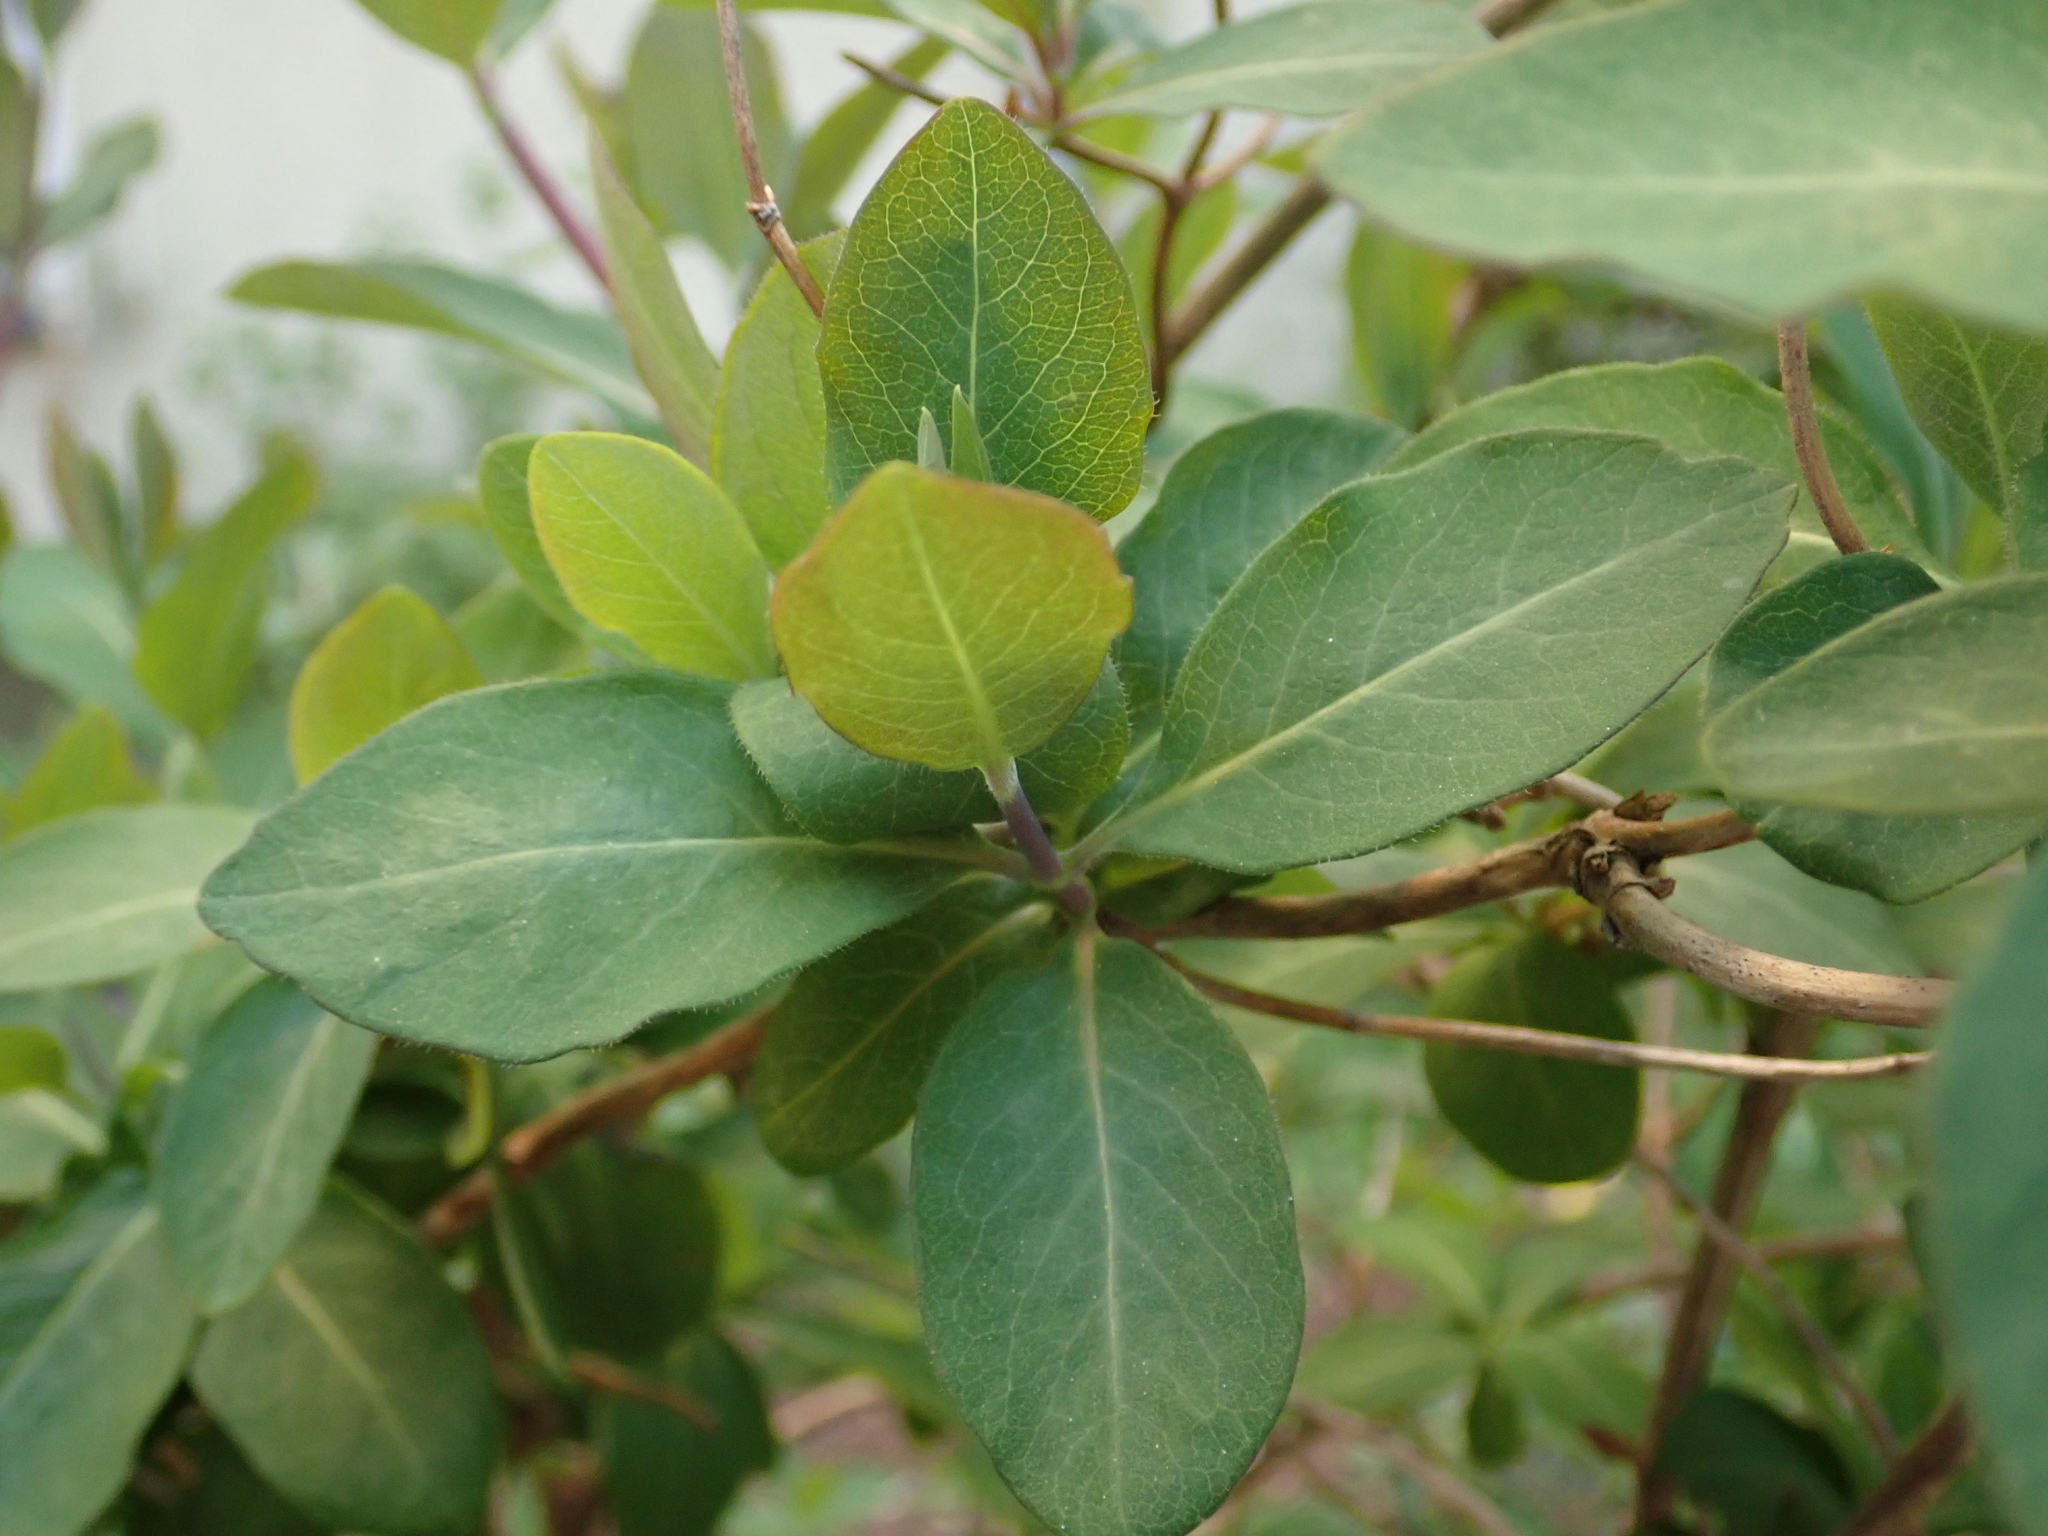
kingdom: Plantae
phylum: Tracheophyta
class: Magnoliopsida
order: Dipsacales
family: Caprifoliaceae
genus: Lonicera
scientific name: Lonicera periclymenum
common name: European honeysuckle
